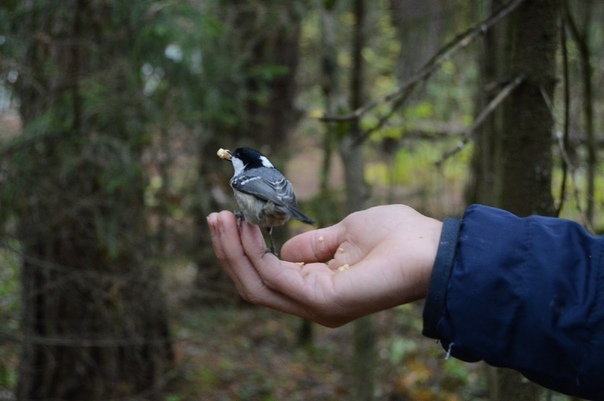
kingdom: Animalia
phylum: Chordata
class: Aves
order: Passeriformes
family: Paridae
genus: Periparus
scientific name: Periparus ater
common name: Coal tit
